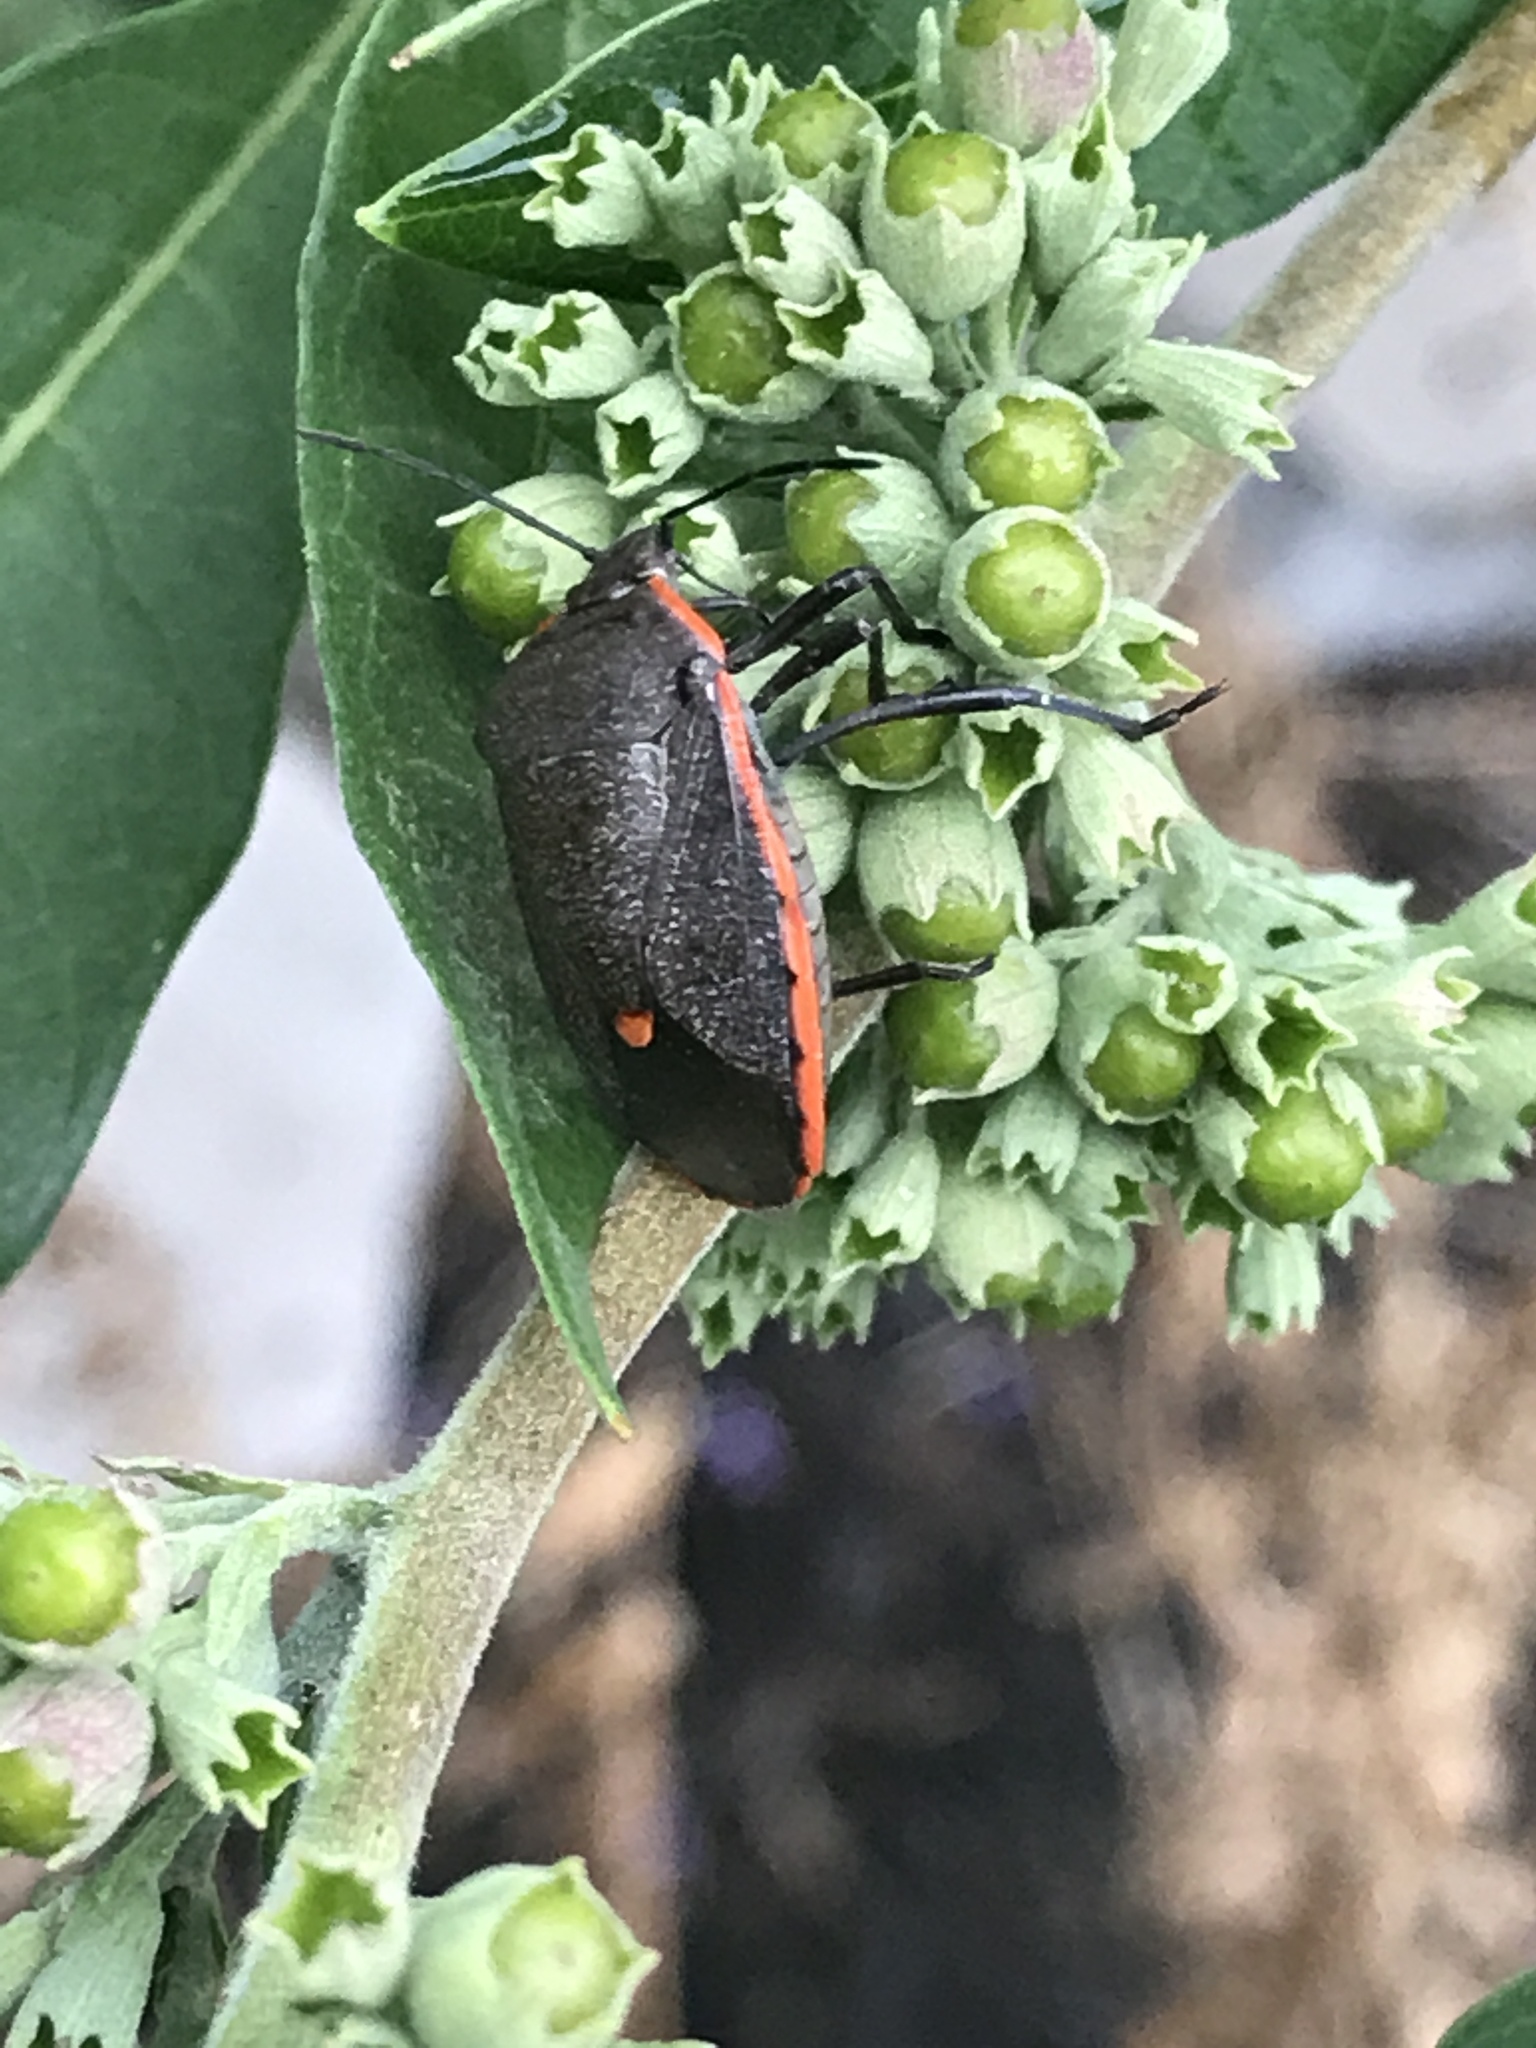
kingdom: Animalia
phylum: Arthropoda
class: Insecta
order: Hemiptera
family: Pentatomidae
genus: Chlorochroa
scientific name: Chlorochroa ligata
